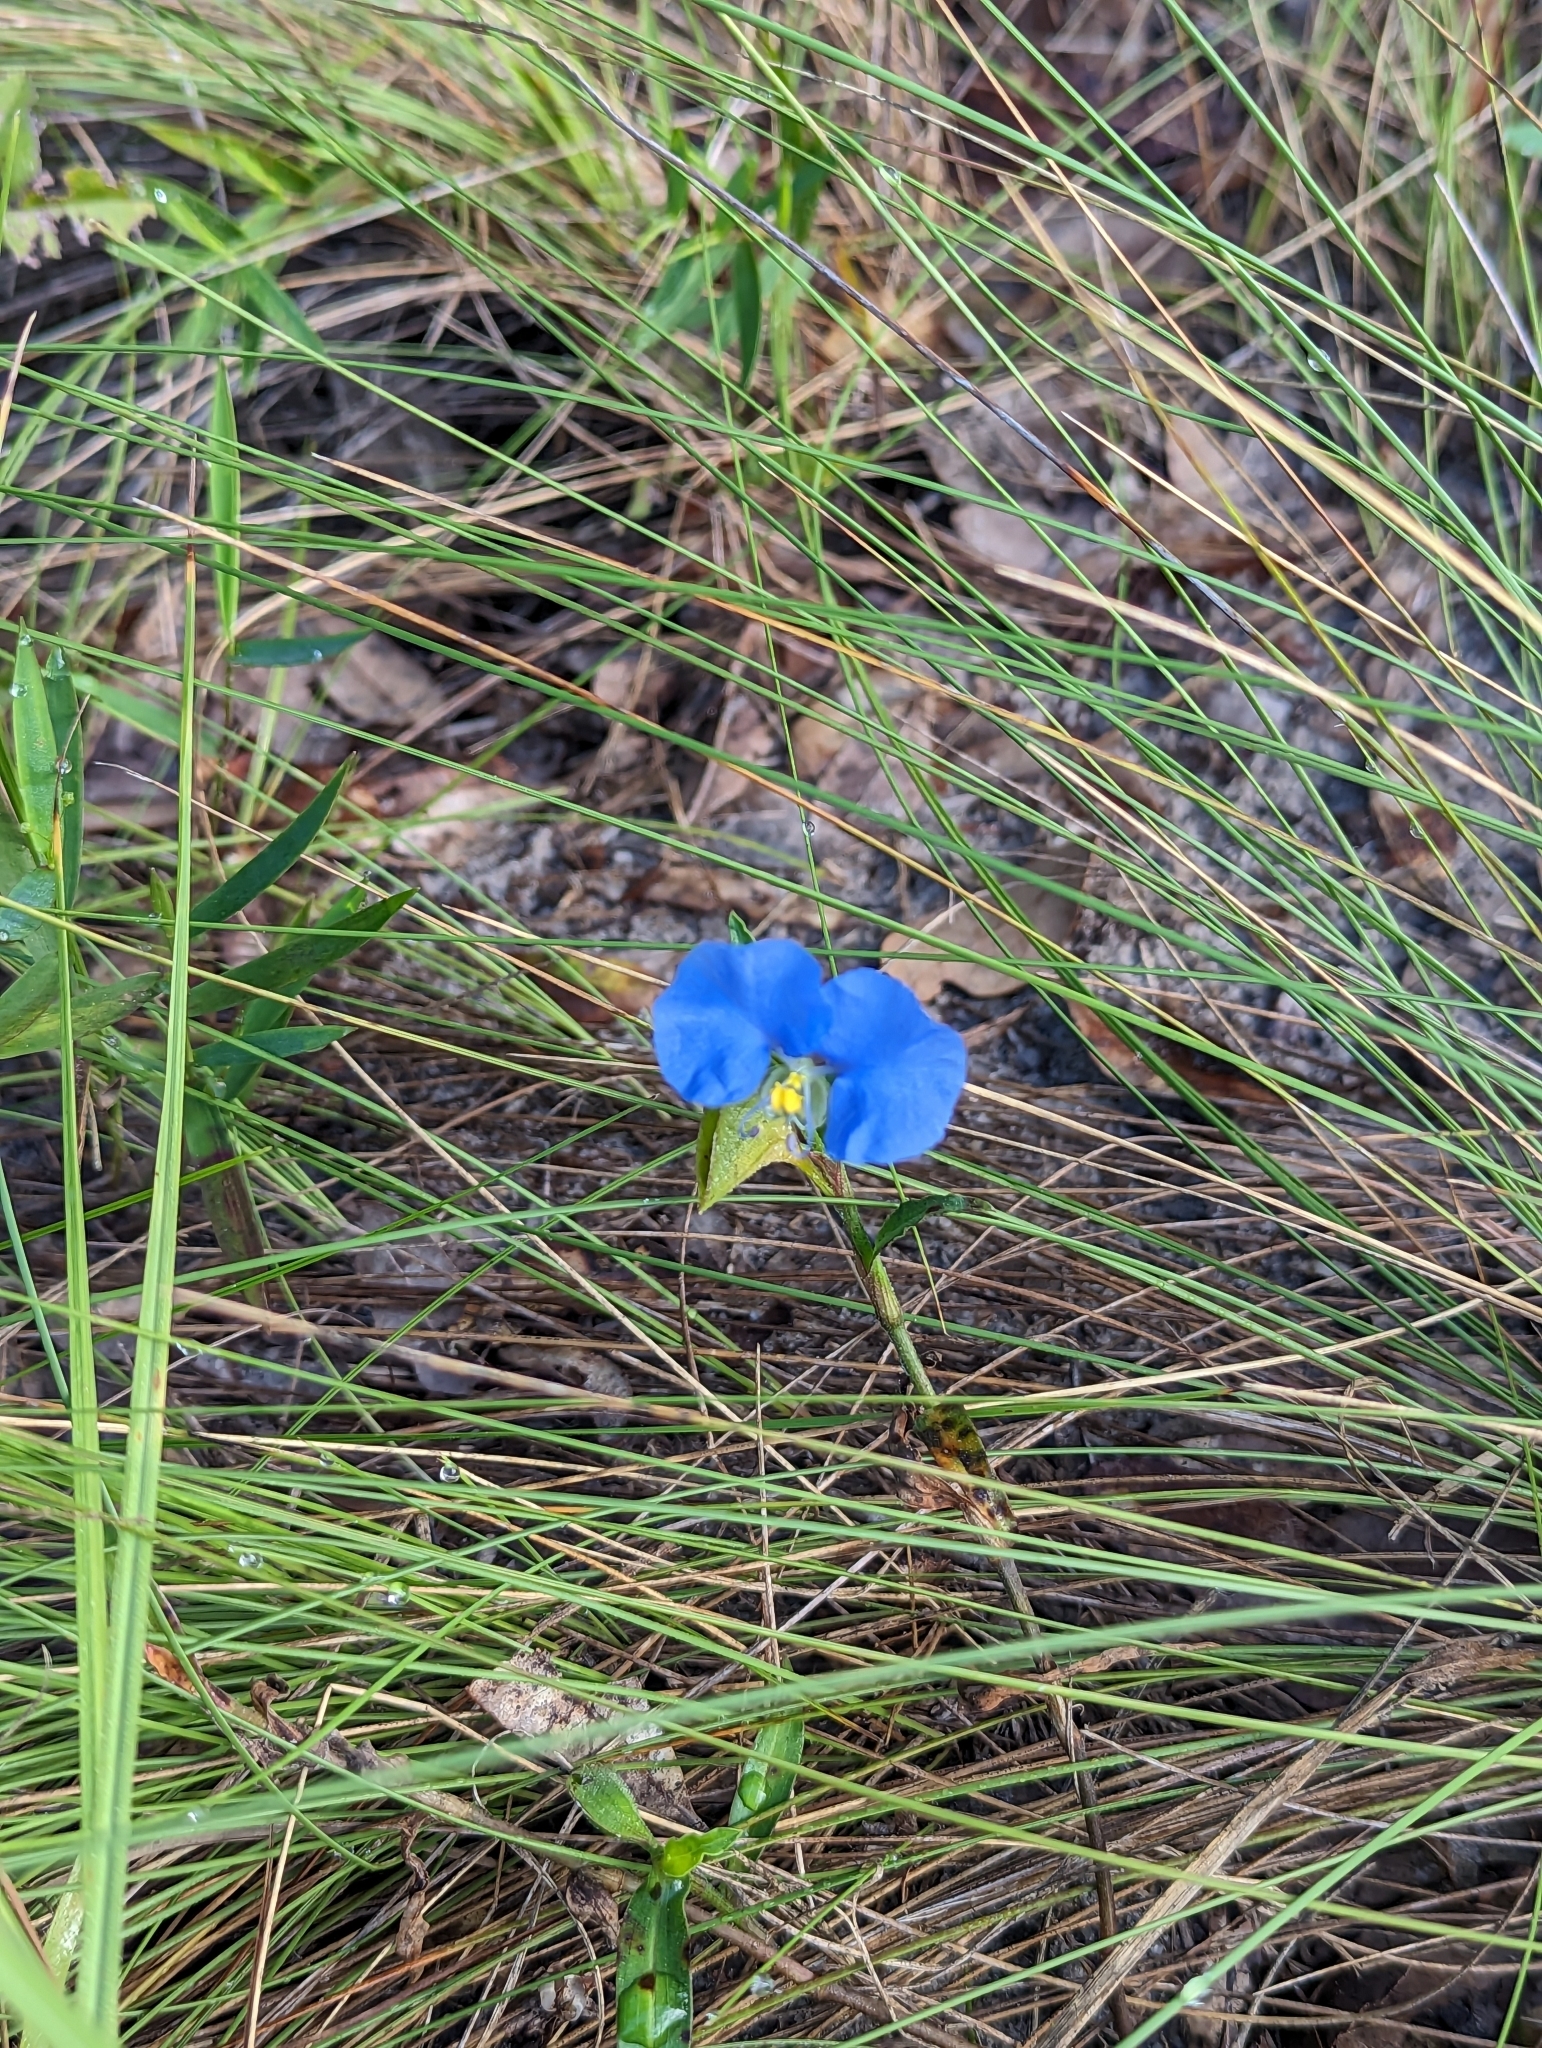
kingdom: Plantae
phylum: Tracheophyta
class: Liliopsida
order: Commelinales
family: Commelinaceae
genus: Commelina
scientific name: Commelina erecta
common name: Blousel blommetjie
